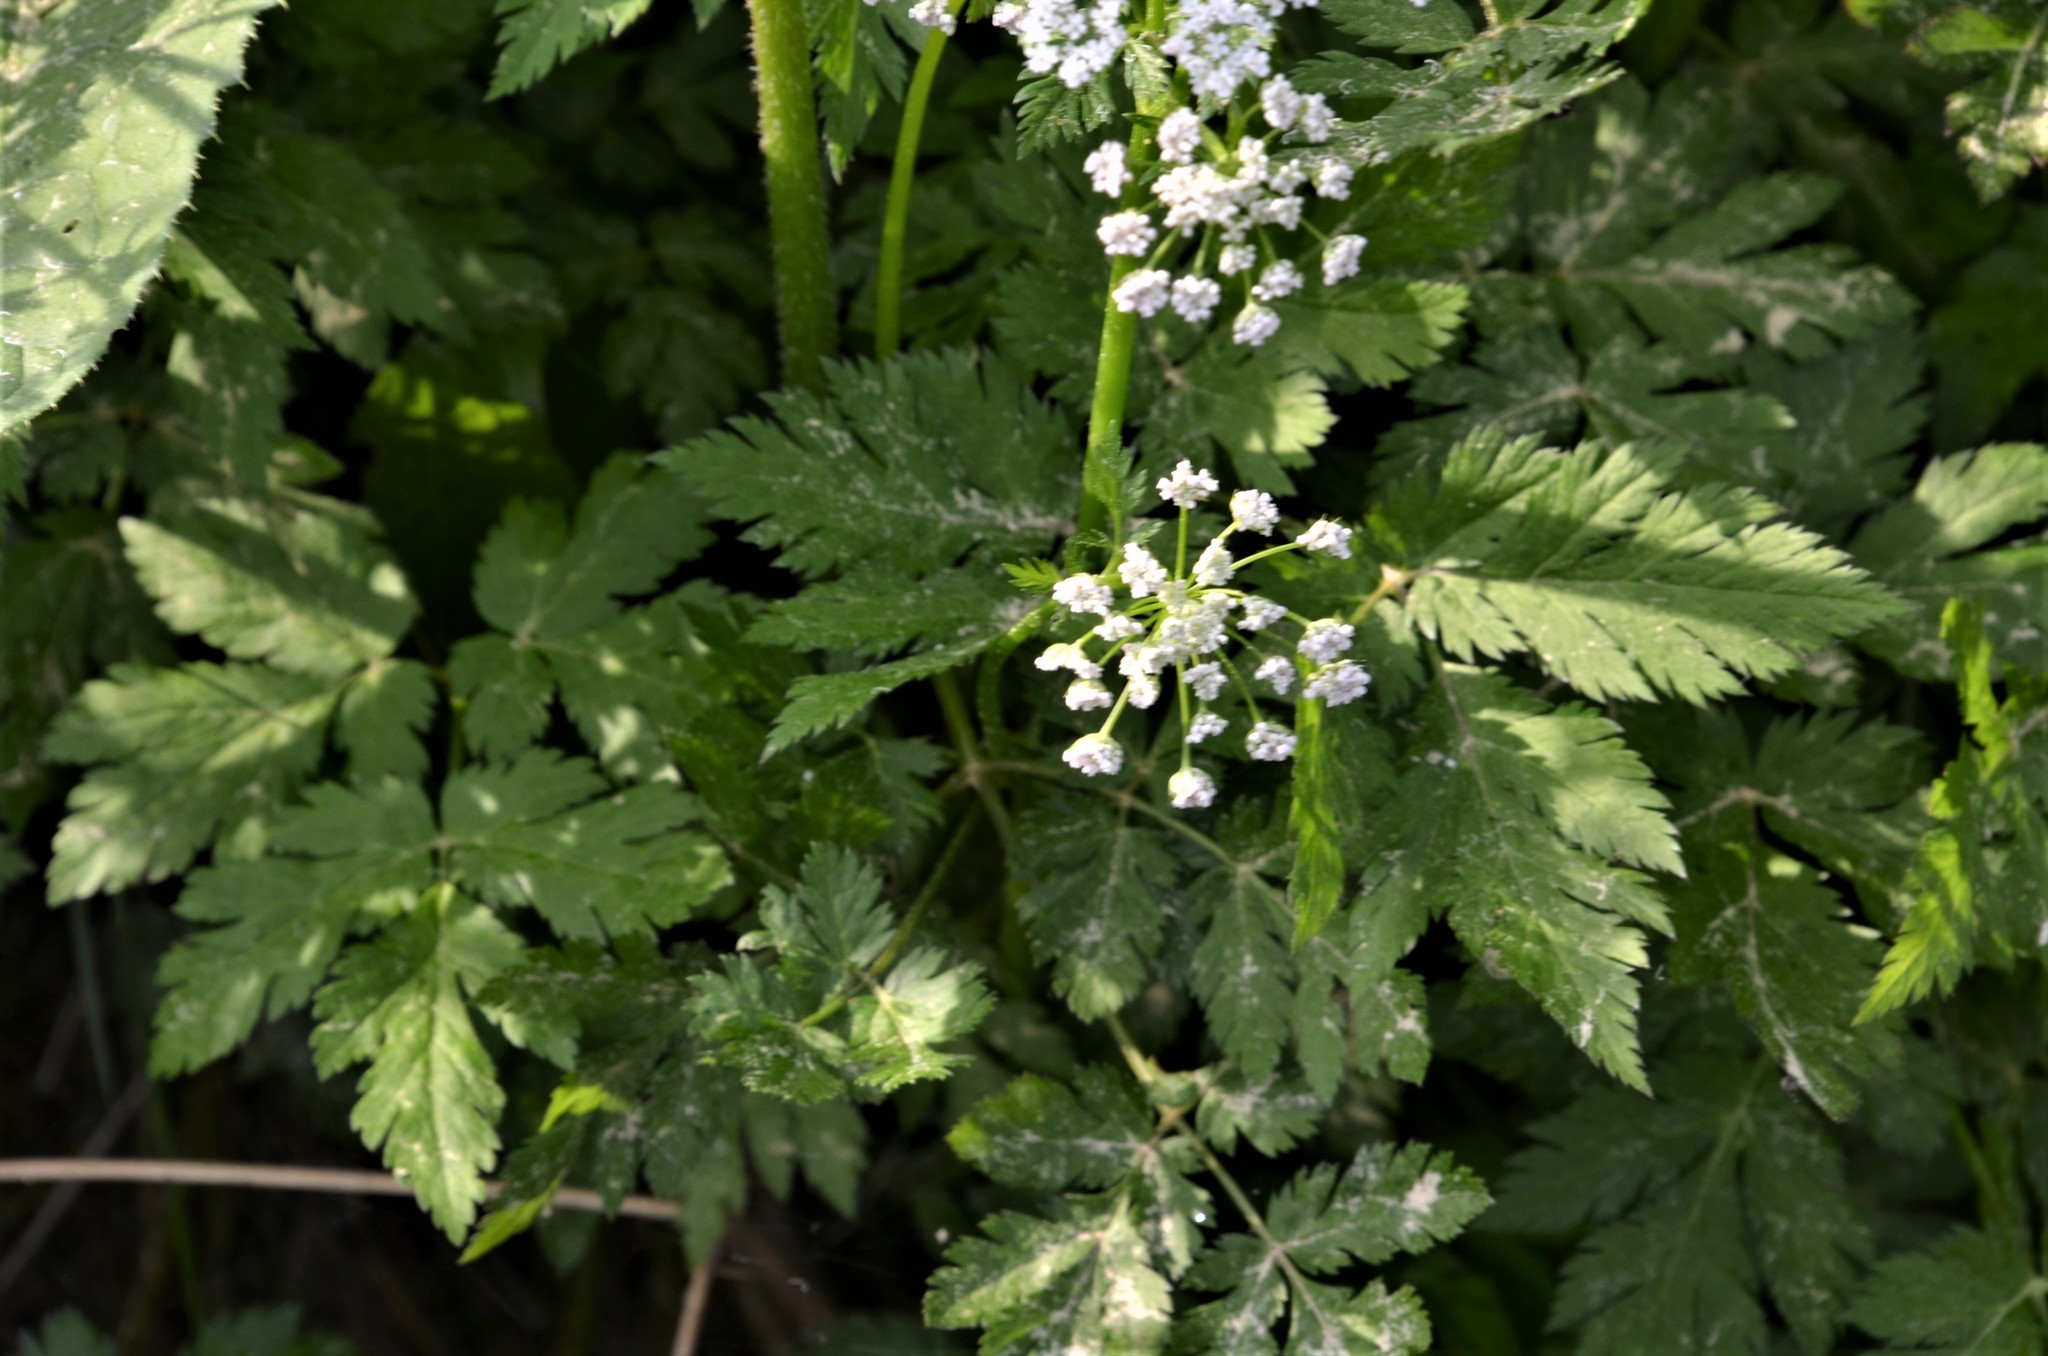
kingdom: Plantae
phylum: Tracheophyta
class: Magnoliopsida
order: Apiales
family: Apiaceae
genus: Chaerophyllum
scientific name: Chaerophyllum hirsutum
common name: Hairy chervil
